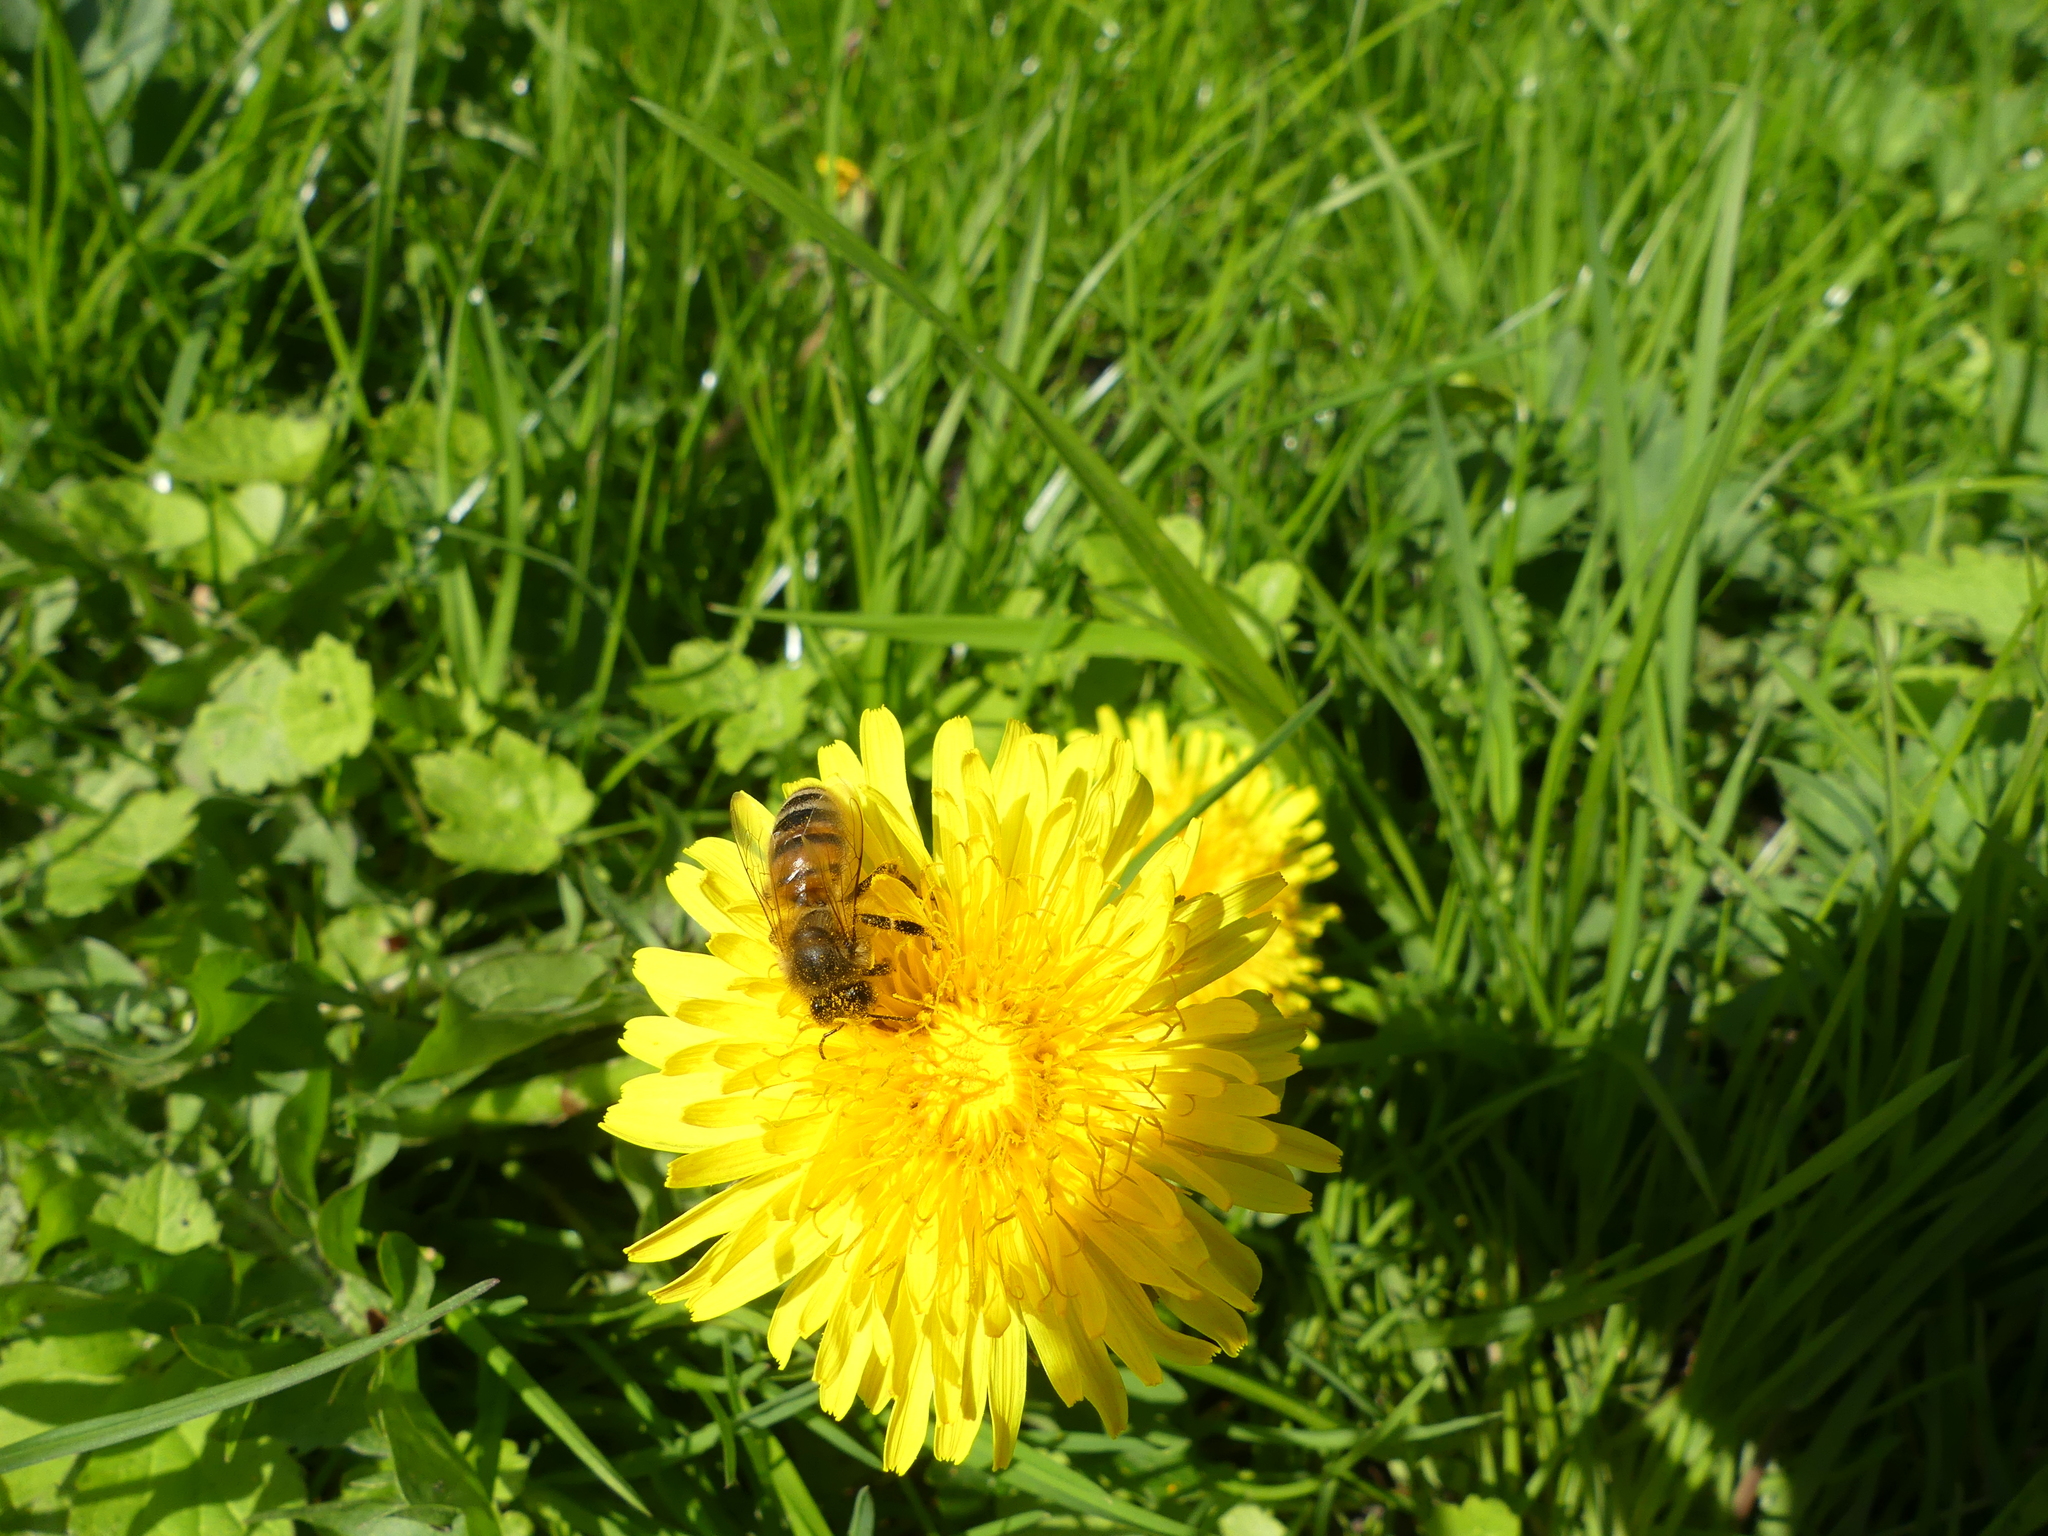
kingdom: Animalia
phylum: Arthropoda
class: Insecta
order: Hymenoptera
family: Apidae
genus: Apis
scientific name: Apis mellifera
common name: Honey bee
